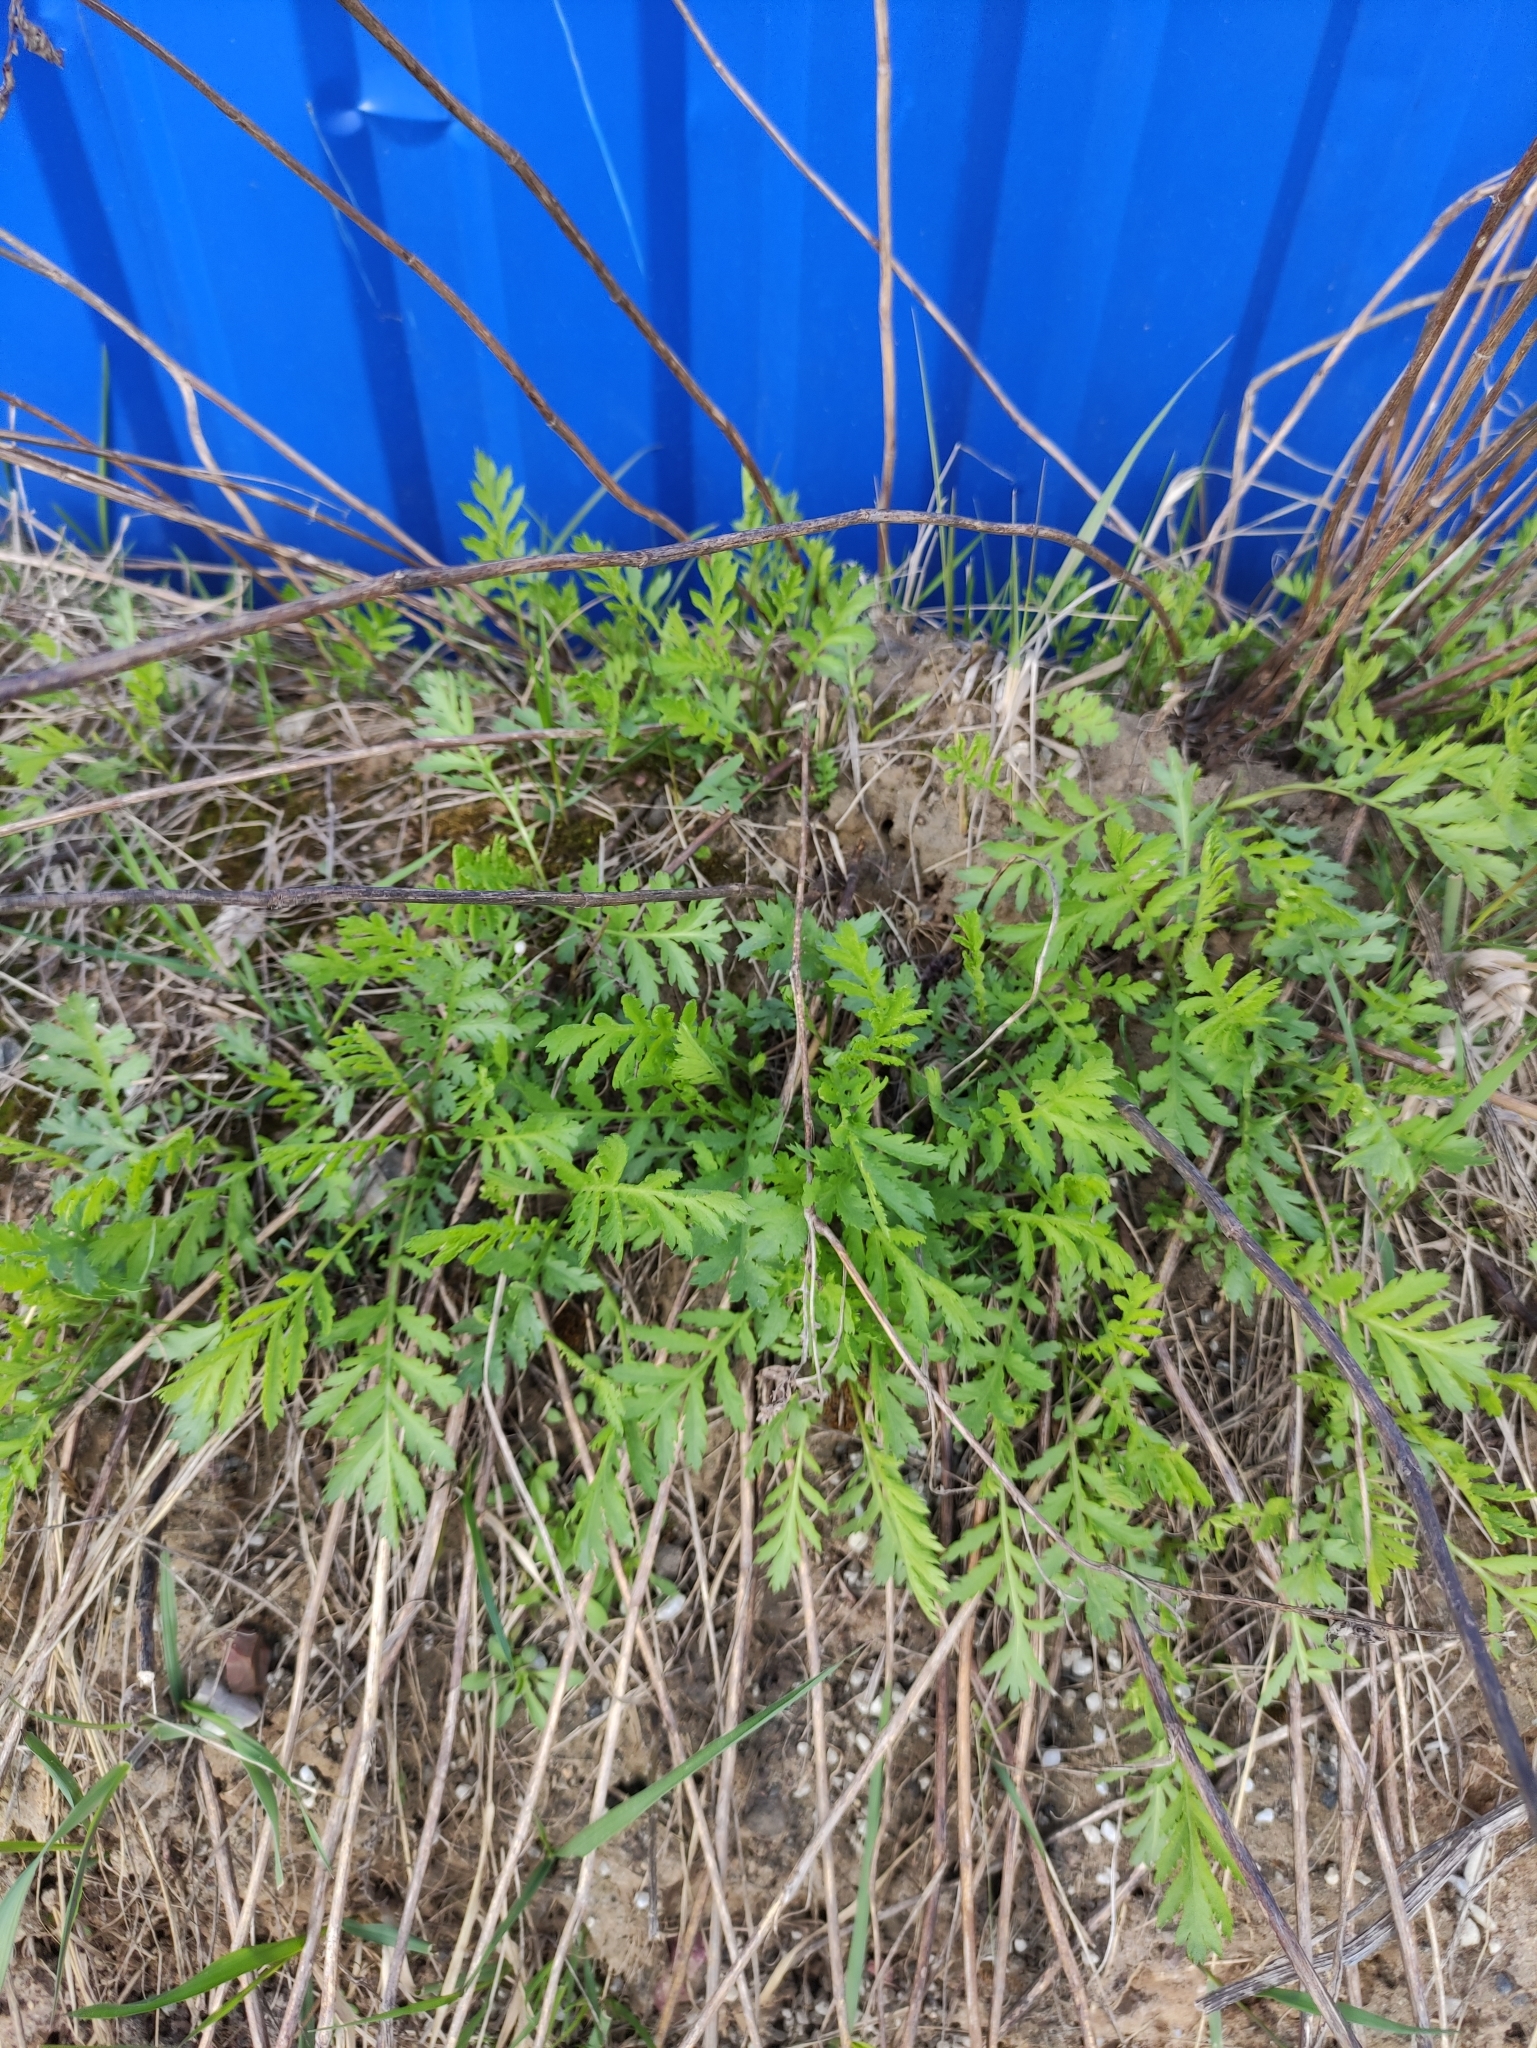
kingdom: Plantae
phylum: Tracheophyta
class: Magnoliopsida
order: Asterales
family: Asteraceae
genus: Tanacetum
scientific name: Tanacetum vulgare
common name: Common tansy
